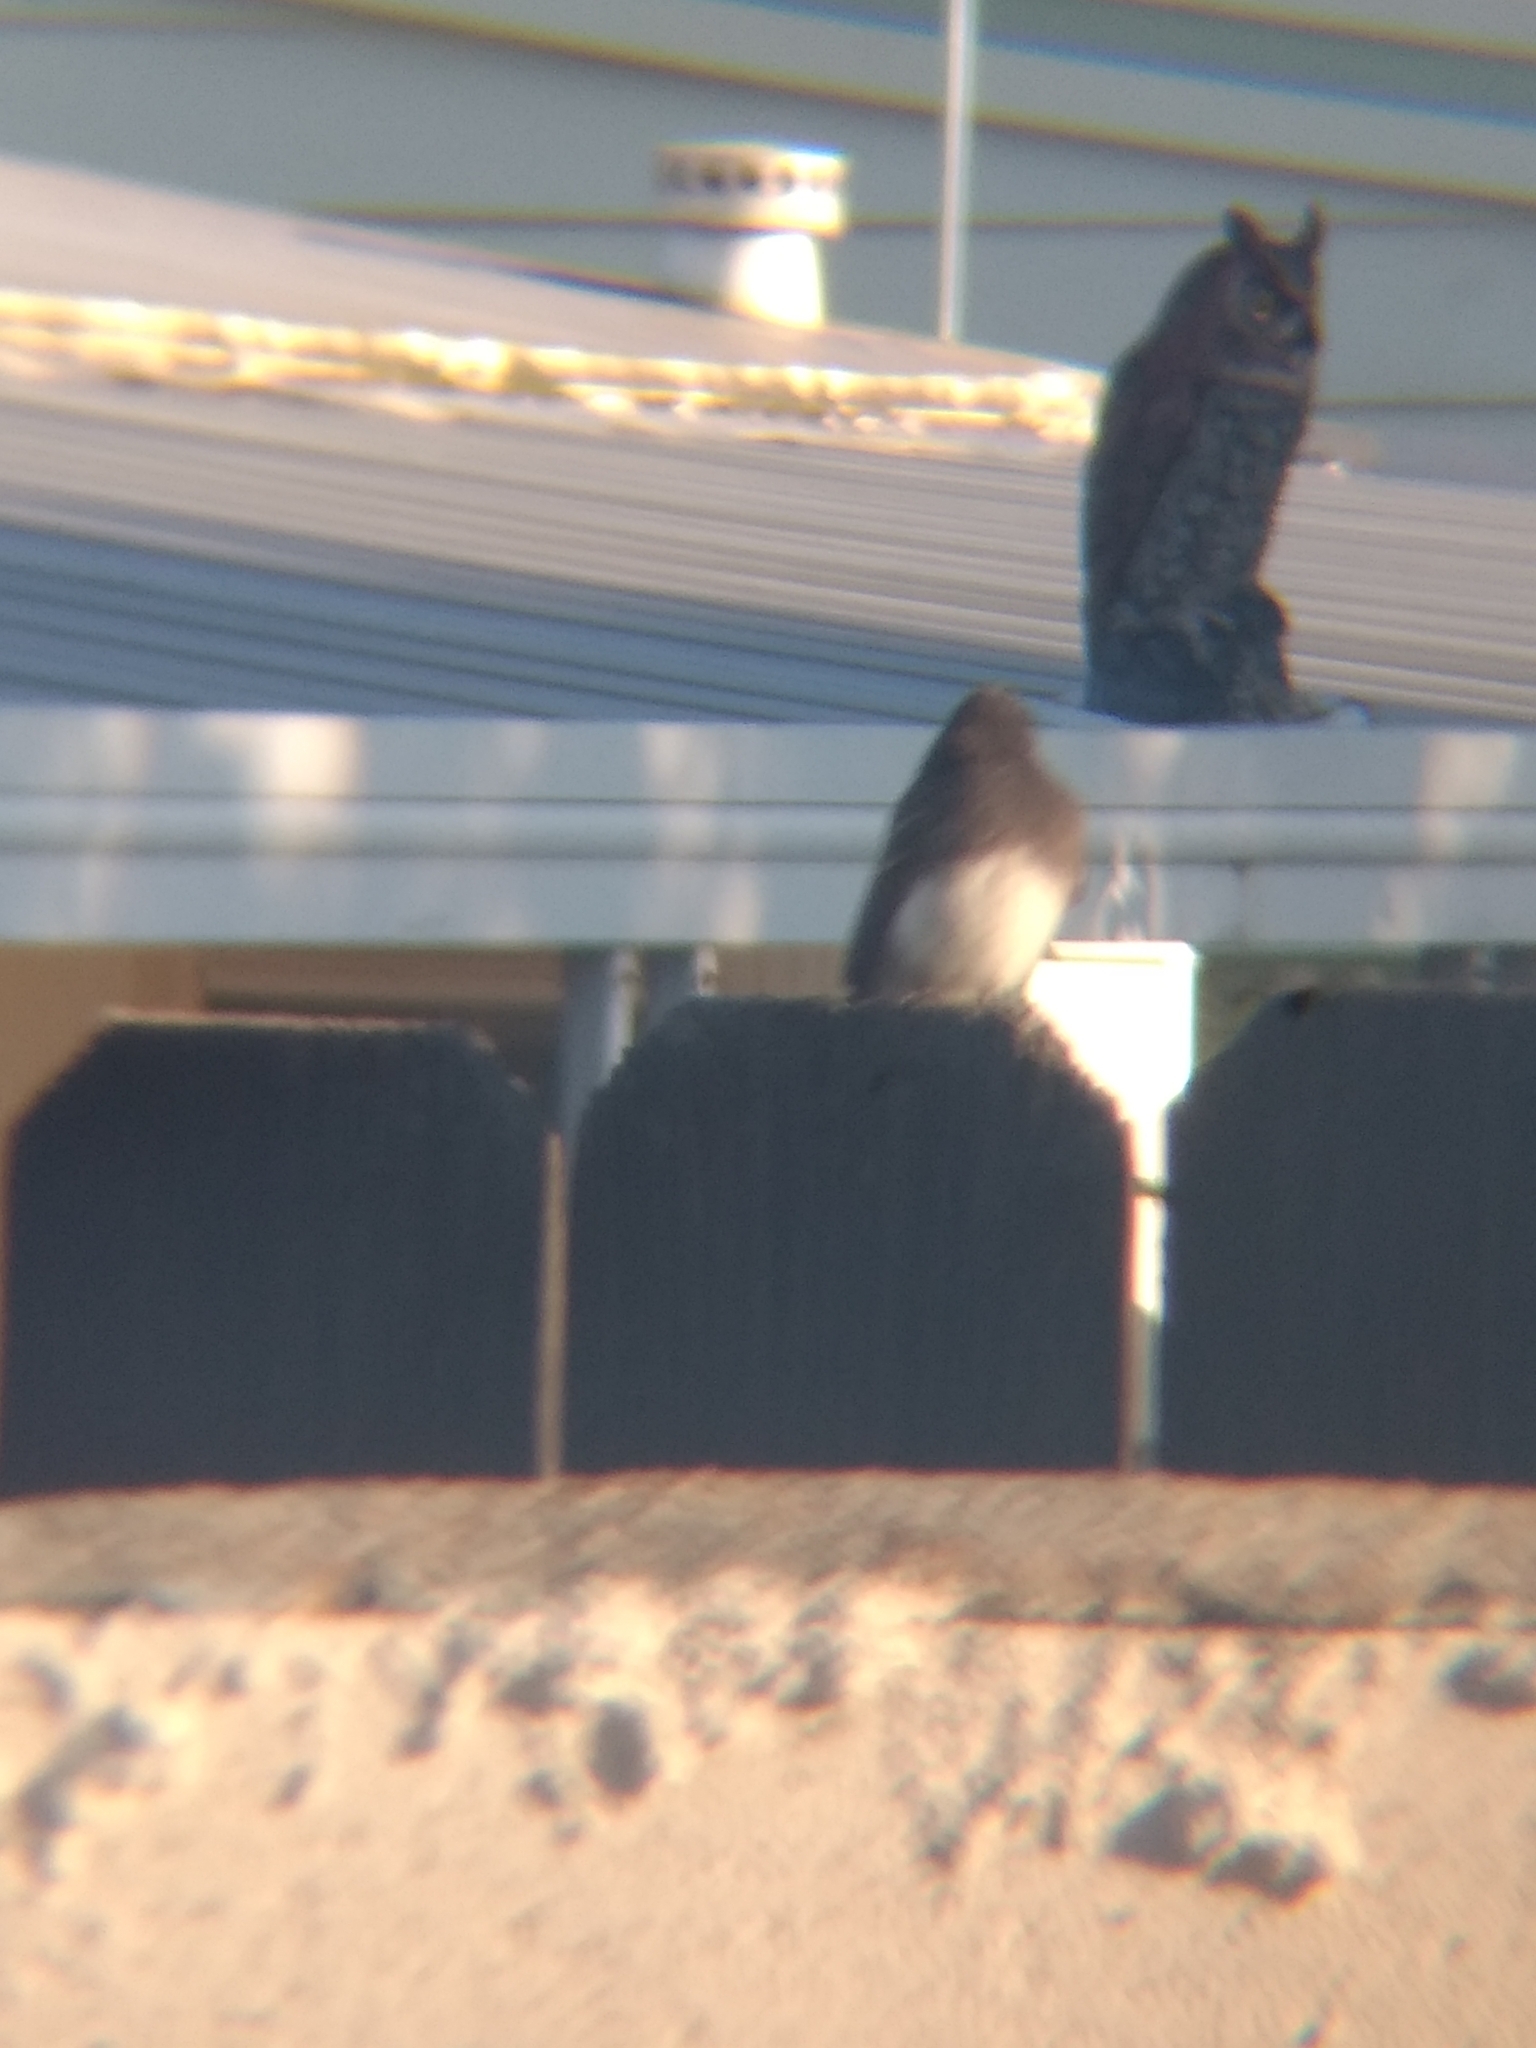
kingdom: Animalia
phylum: Chordata
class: Aves
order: Passeriformes
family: Tyrannidae
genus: Sayornis
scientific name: Sayornis nigricans
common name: Black phoebe
